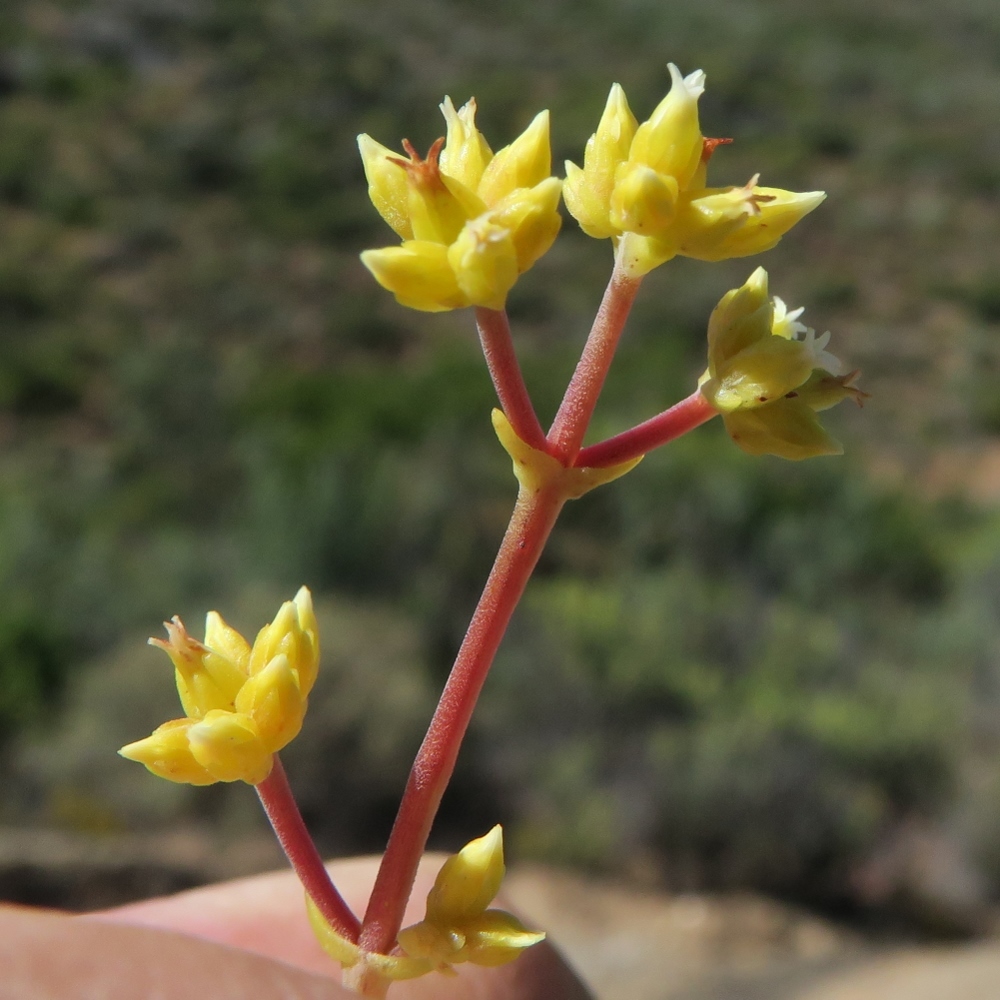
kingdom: Plantae
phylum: Tracheophyta
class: Magnoliopsida
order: Saxifragales
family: Crassulaceae
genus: Crassula
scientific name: Crassula subaphylla
